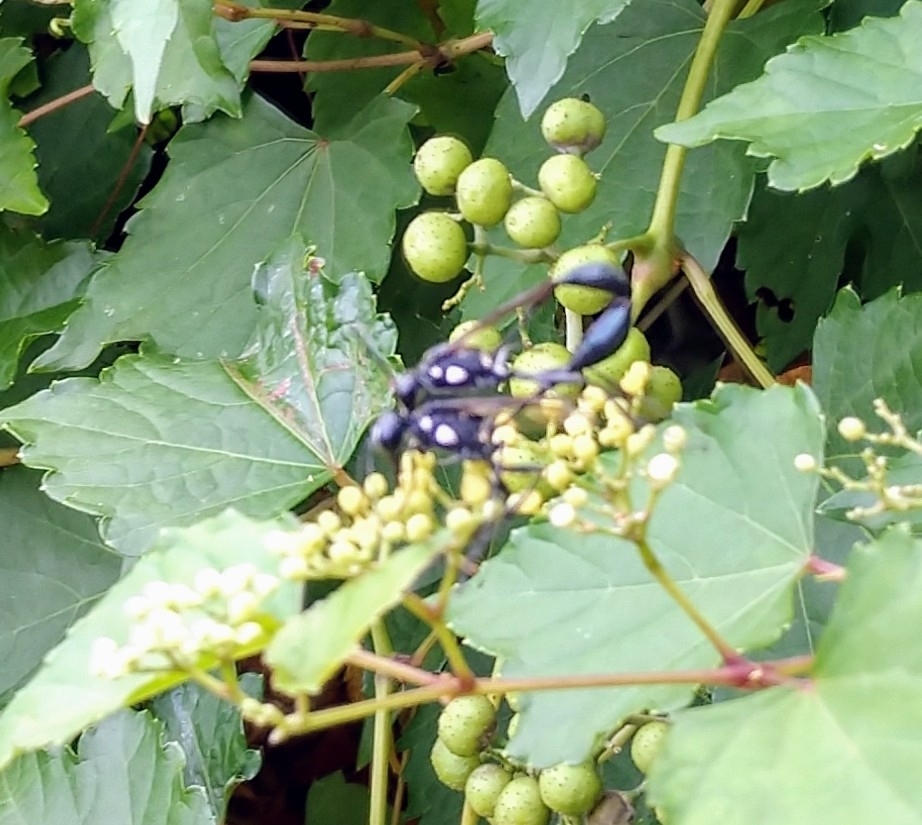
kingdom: Animalia
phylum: Arthropoda
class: Insecta
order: Hymenoptera
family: Sphecidae
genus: Eremnophila
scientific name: Eremnophila aureonotata
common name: Gold-marked thread-waisted wasp
